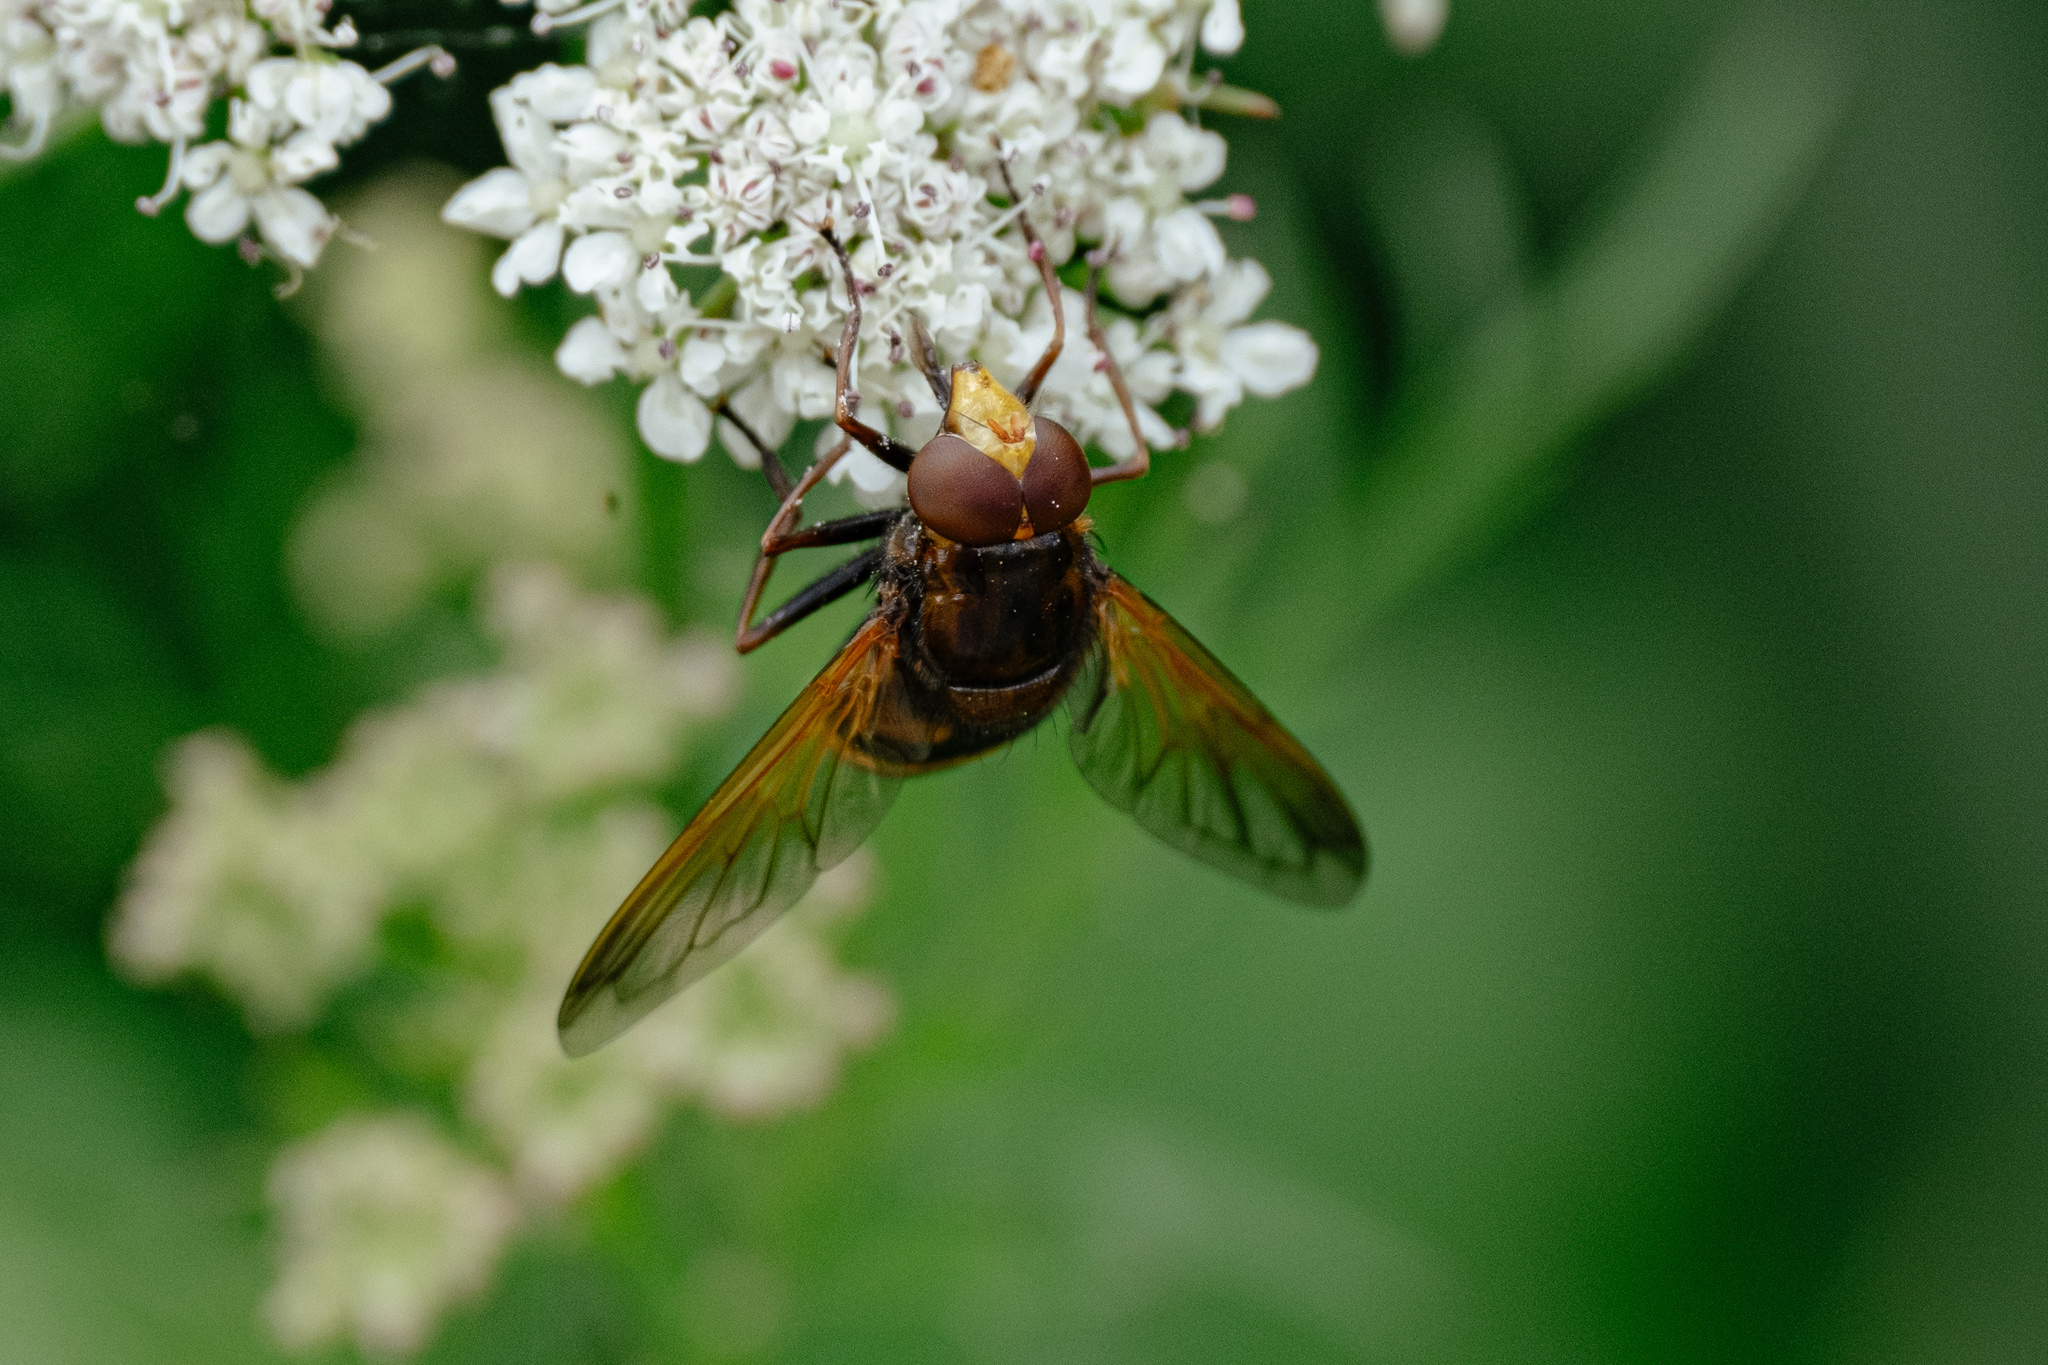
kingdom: Animalia
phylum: Arthropoda
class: Insecta
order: Diptera
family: Syrphidae
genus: Volucella
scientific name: Volucella zonaria
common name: Hornet hoverfly
